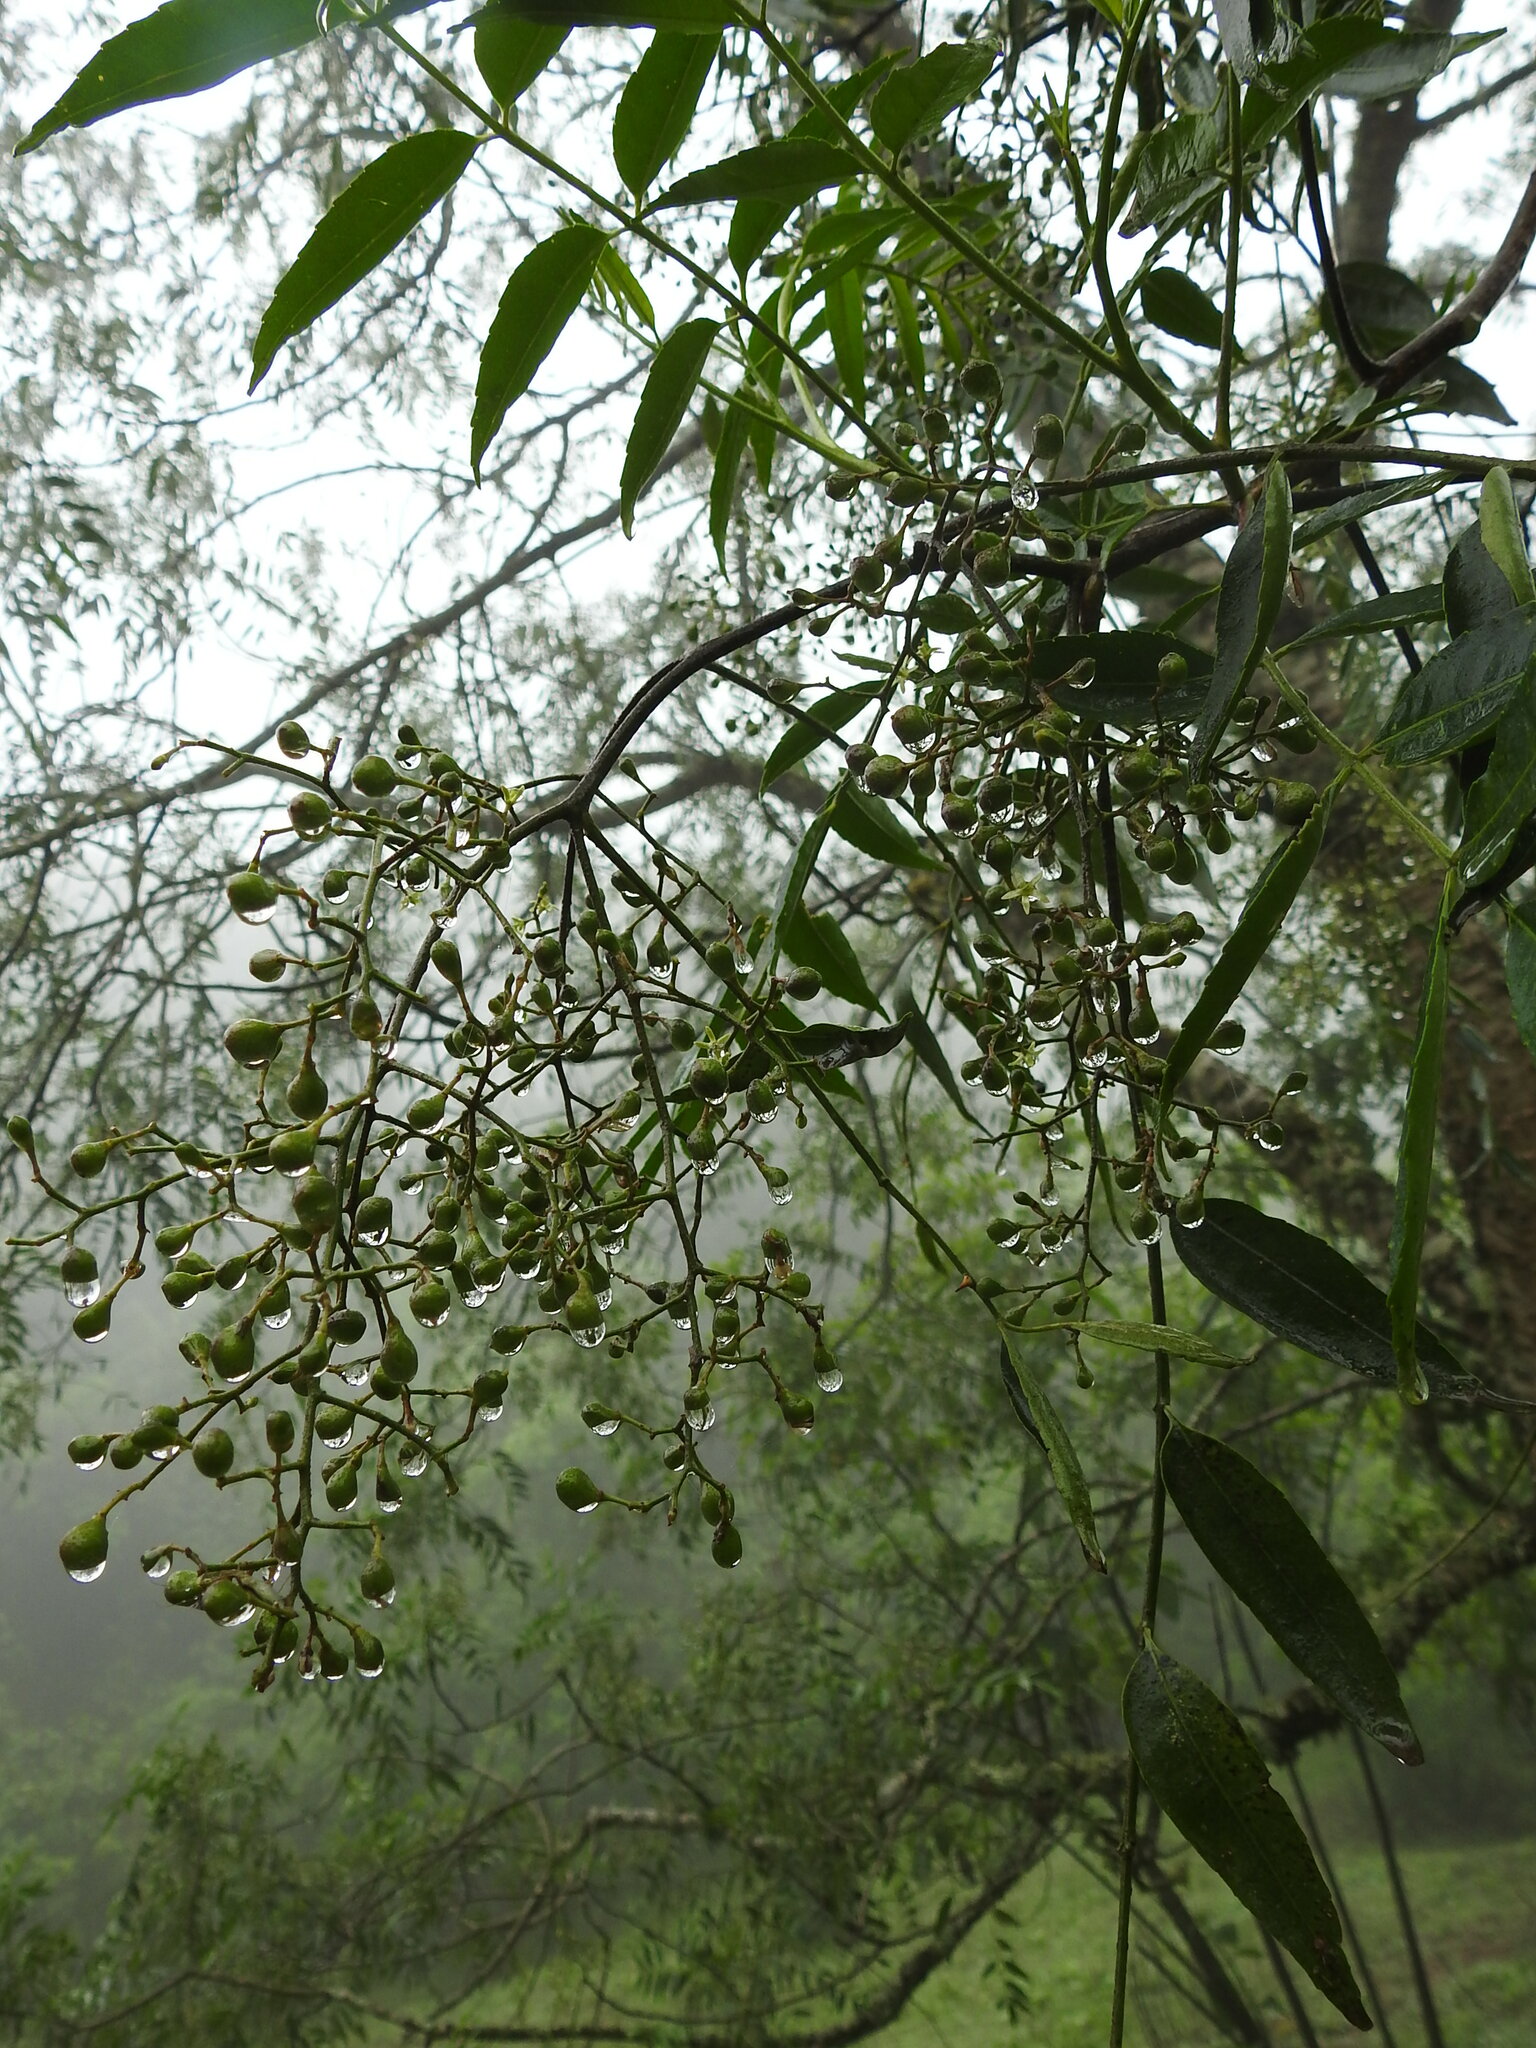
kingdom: Plantae
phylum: Tracheophyta
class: Magnoliopsida
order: Sapindales
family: Rutaceae
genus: Zanthoxylum
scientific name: Zanthoxylum coco
